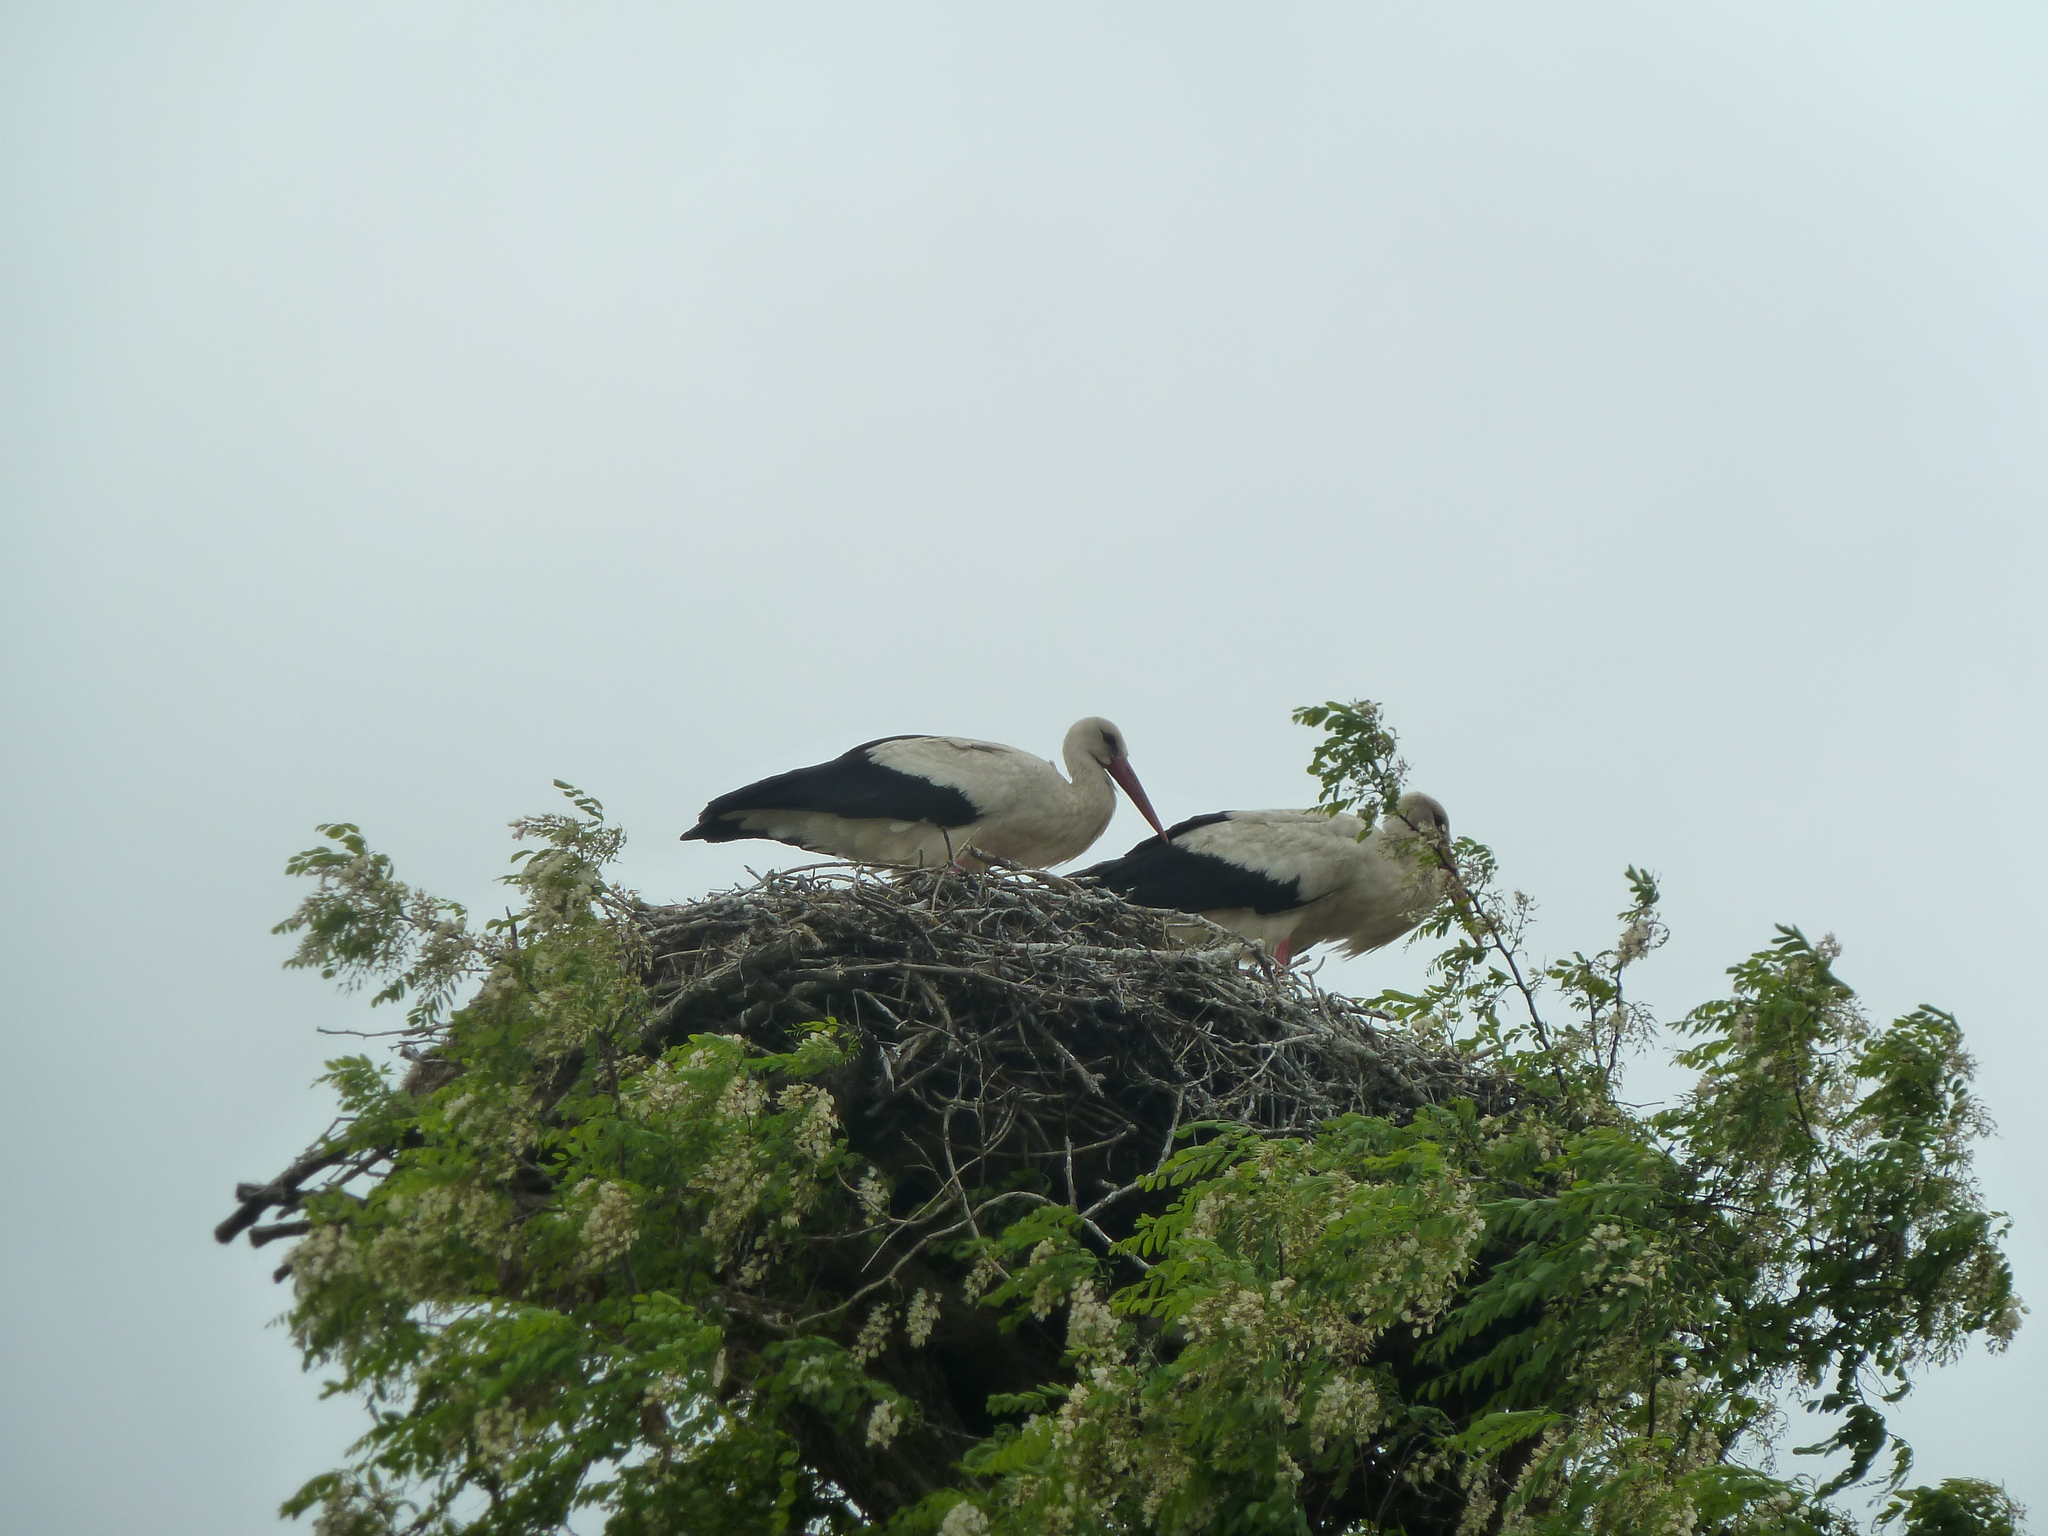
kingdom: Animalia
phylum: Chordata
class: Aves
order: Ciconiiformes
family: Ciconiidae
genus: Ciconia
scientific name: Ciconia ciconia
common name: White stork
